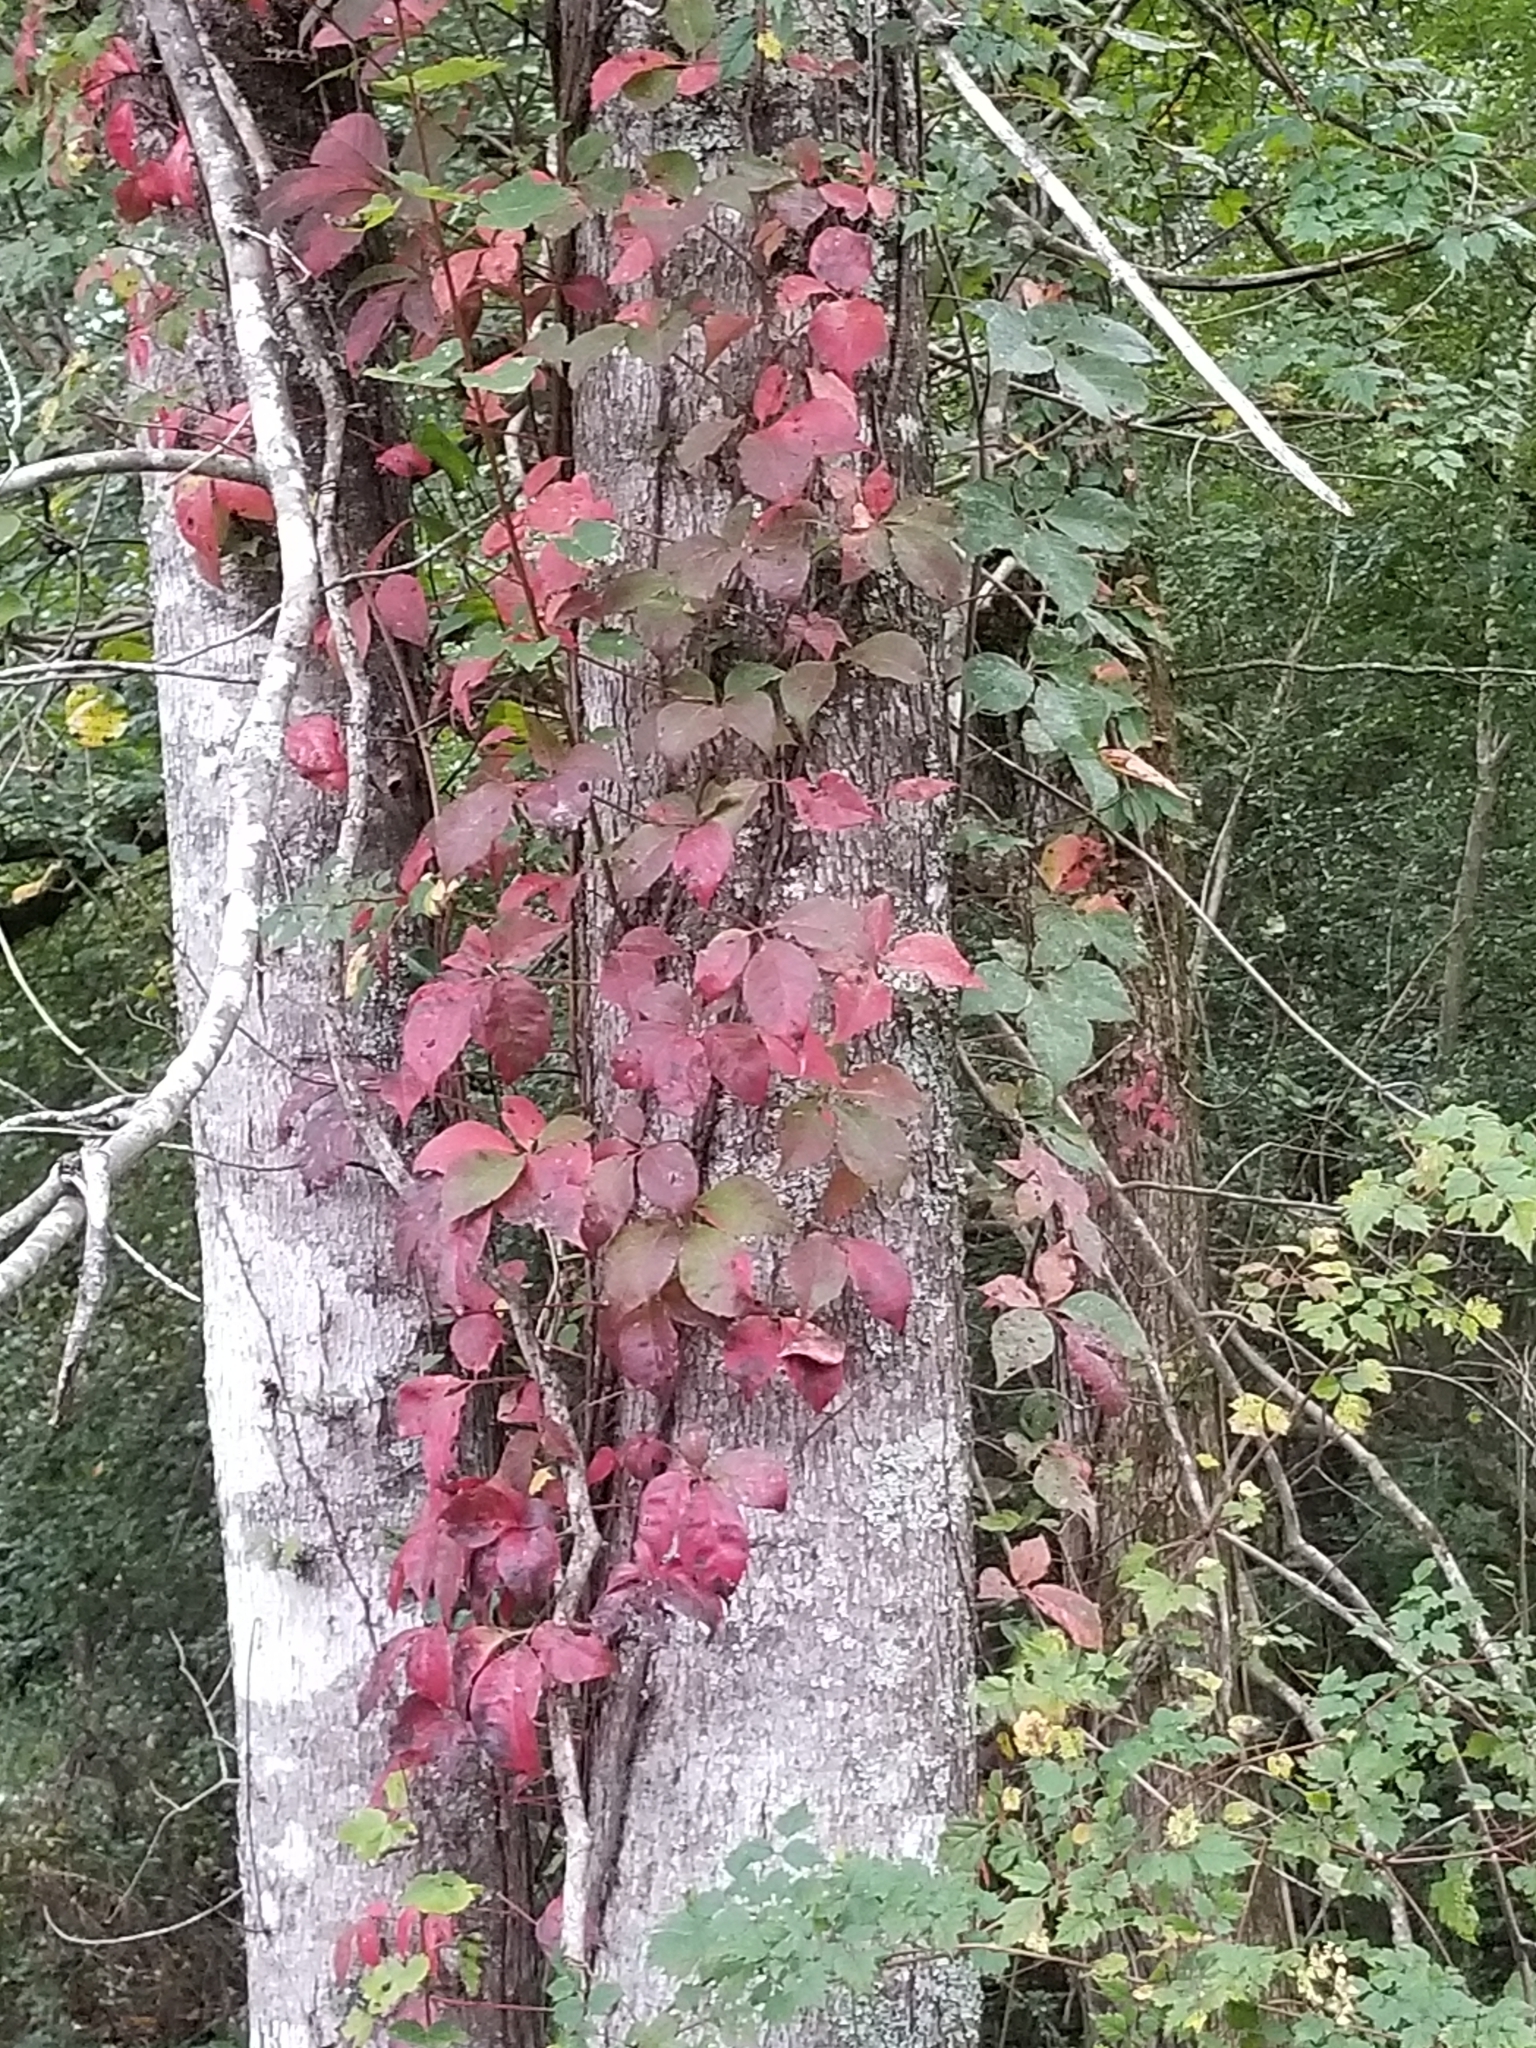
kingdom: Plantae
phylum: Tracheophyta
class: Magnoliopsida
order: Vitales
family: Vitaceae
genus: Parthenocissus
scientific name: Parthenocissus quinquefolia
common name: Virginia-creeper
